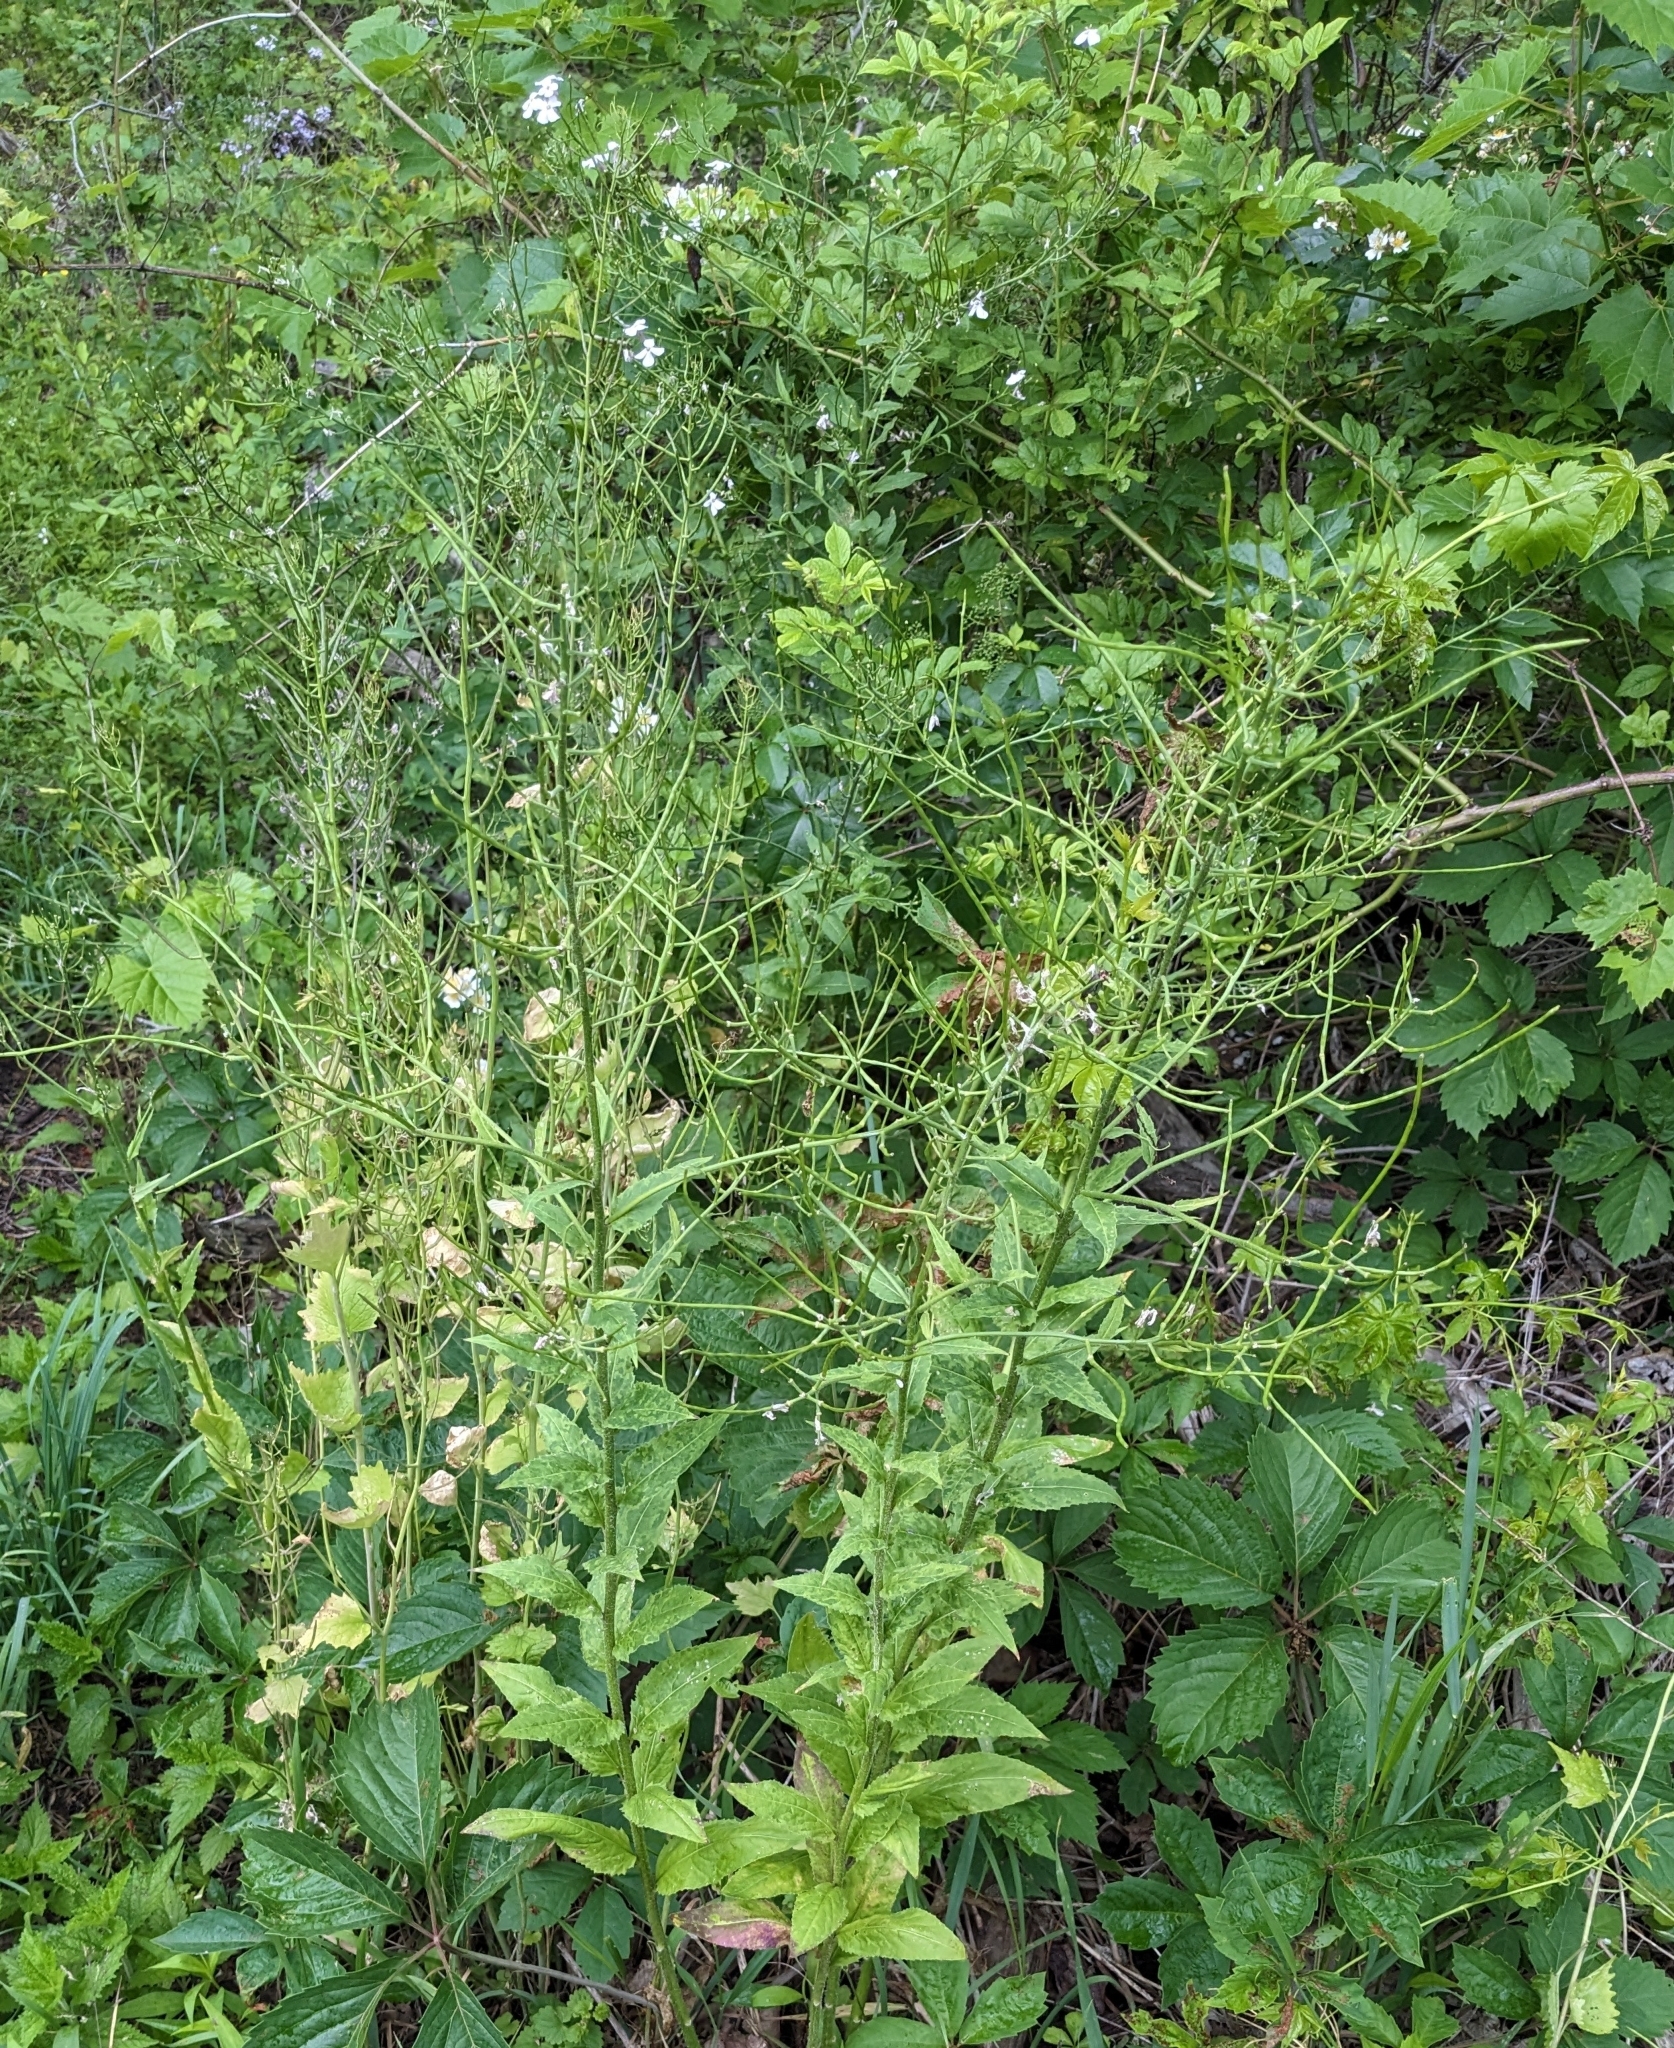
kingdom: Plantae
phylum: Tracheophyta
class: Magnoliopsida
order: Brassicales
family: Brassicaceae
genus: Hesperis
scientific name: Hesperis matronalis
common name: Dame's-violet
